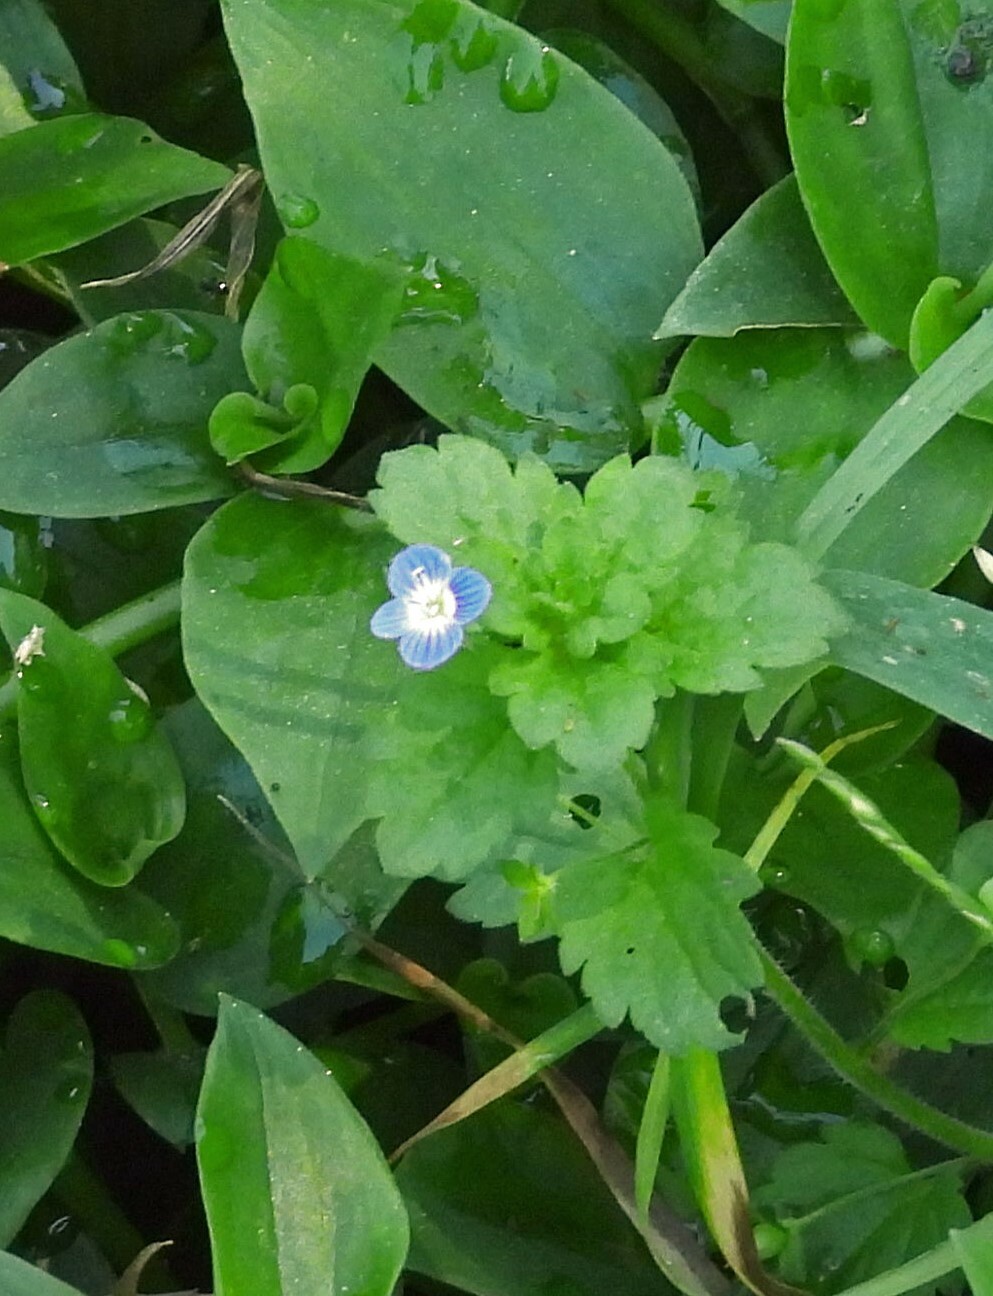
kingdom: Plantae
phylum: Tracheophyta
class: Magnoliopsida
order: Lamiales
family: Plantaginaceae
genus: Veronica
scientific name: Veronica persica
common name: Common field-speedwell
